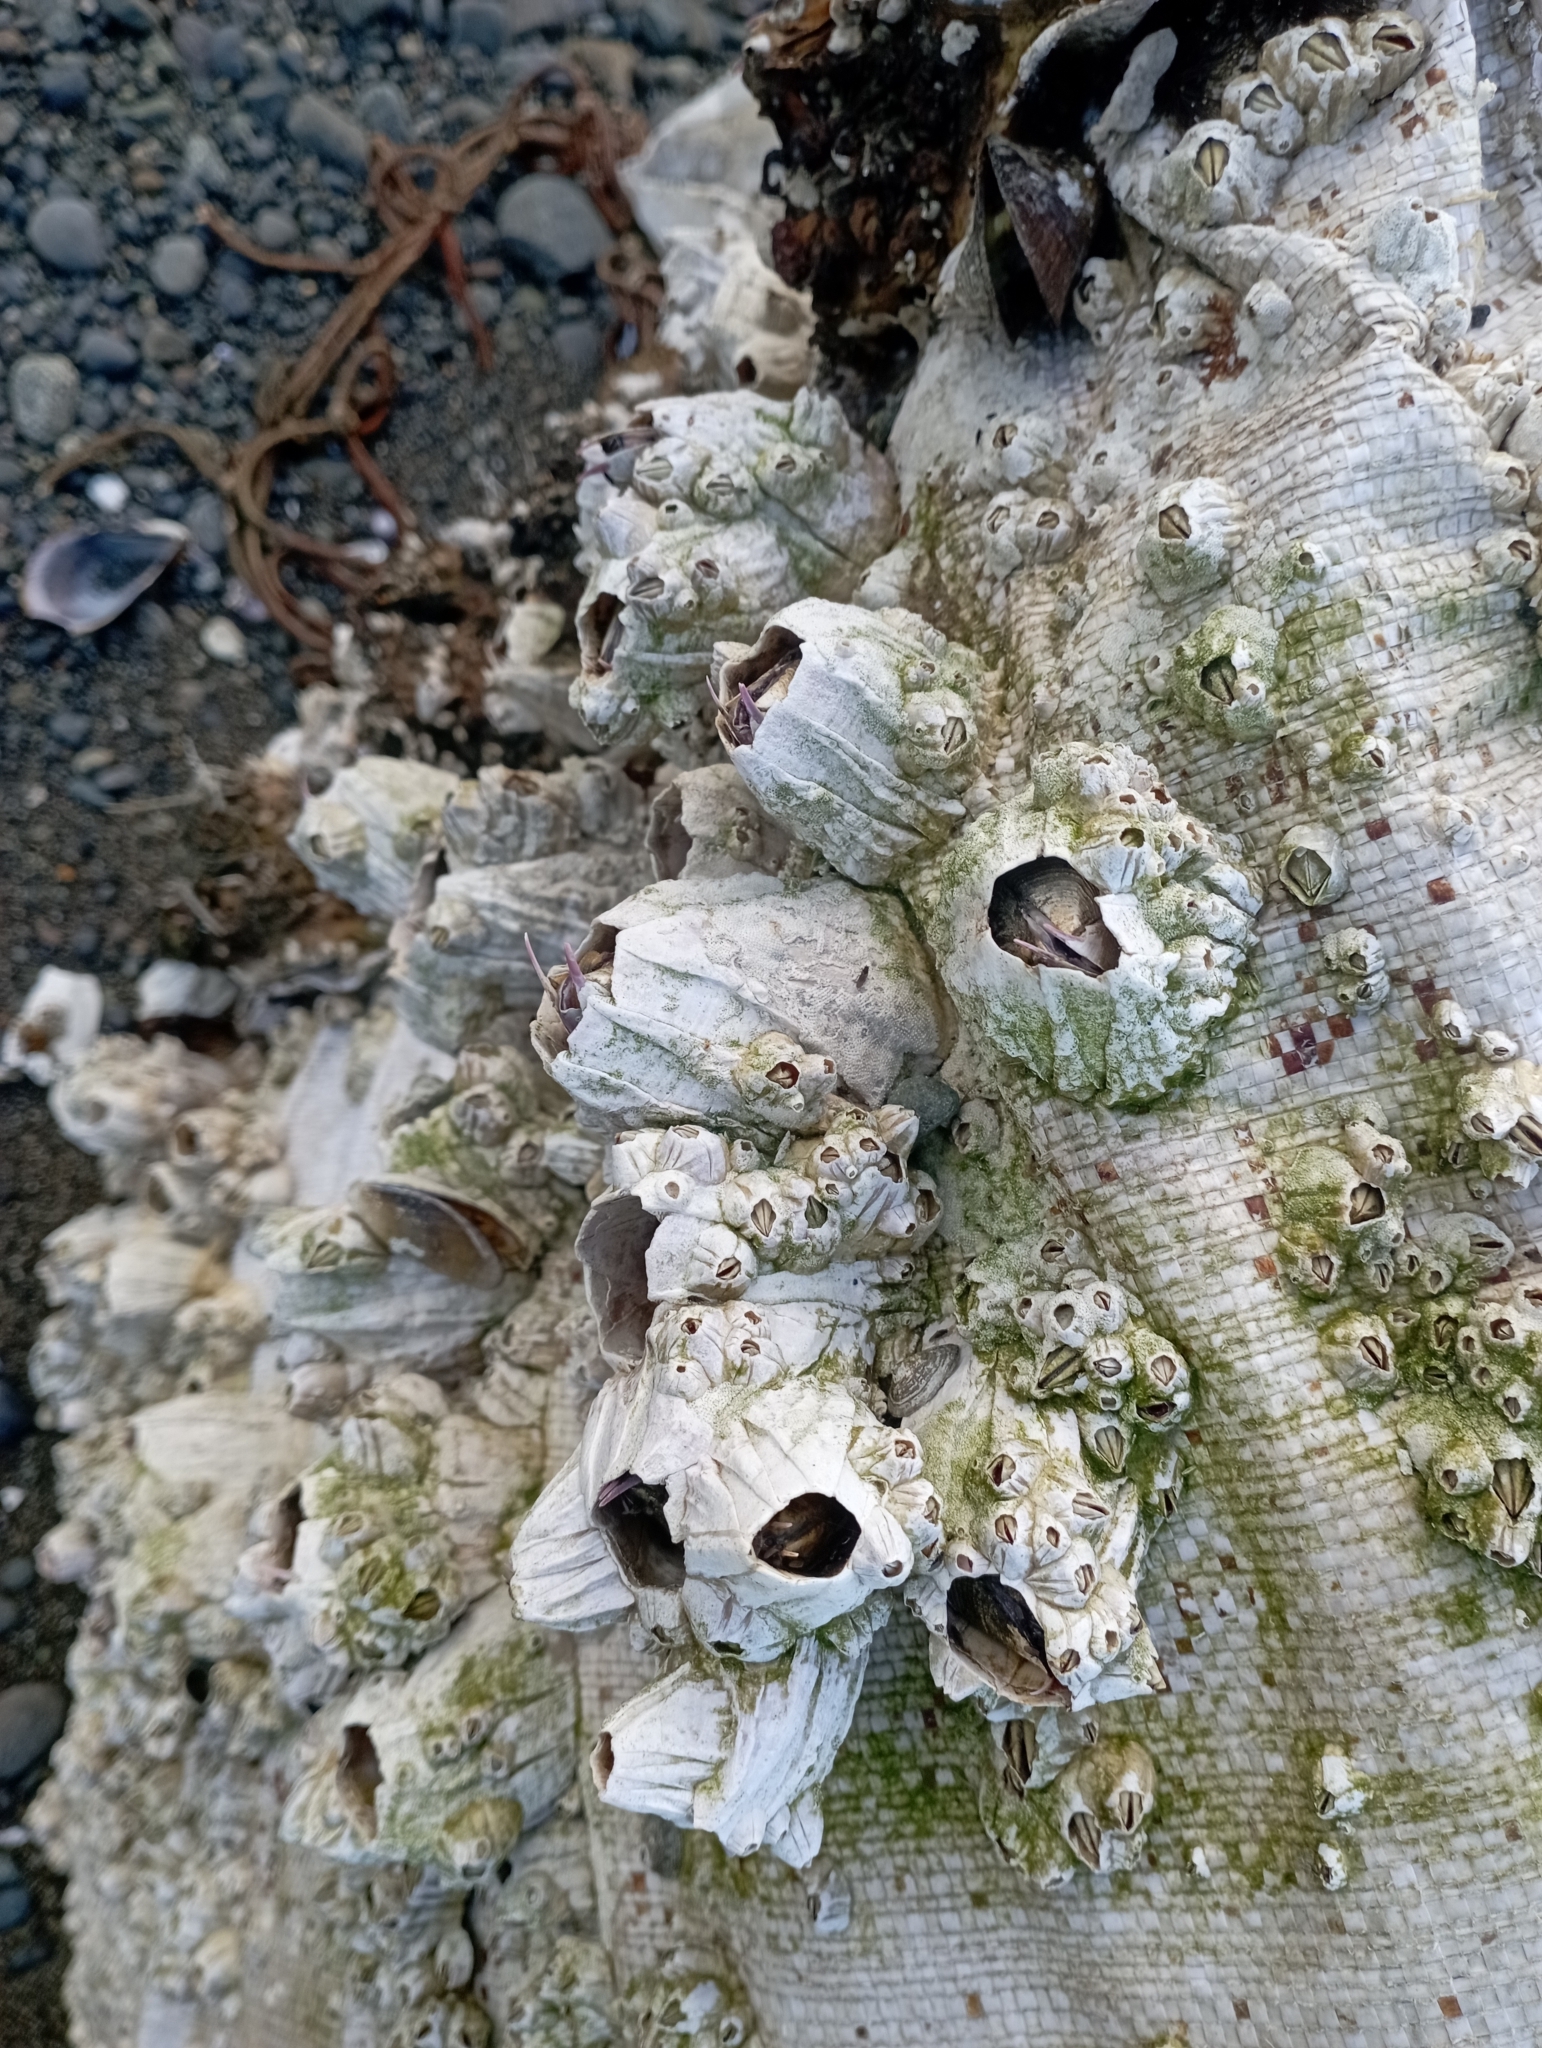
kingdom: Animalia
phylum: Arthropoda
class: Maxillopoda
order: Sessilia
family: Balanidae
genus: Austromegabalanus
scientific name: Austromegabalanus psittacus
